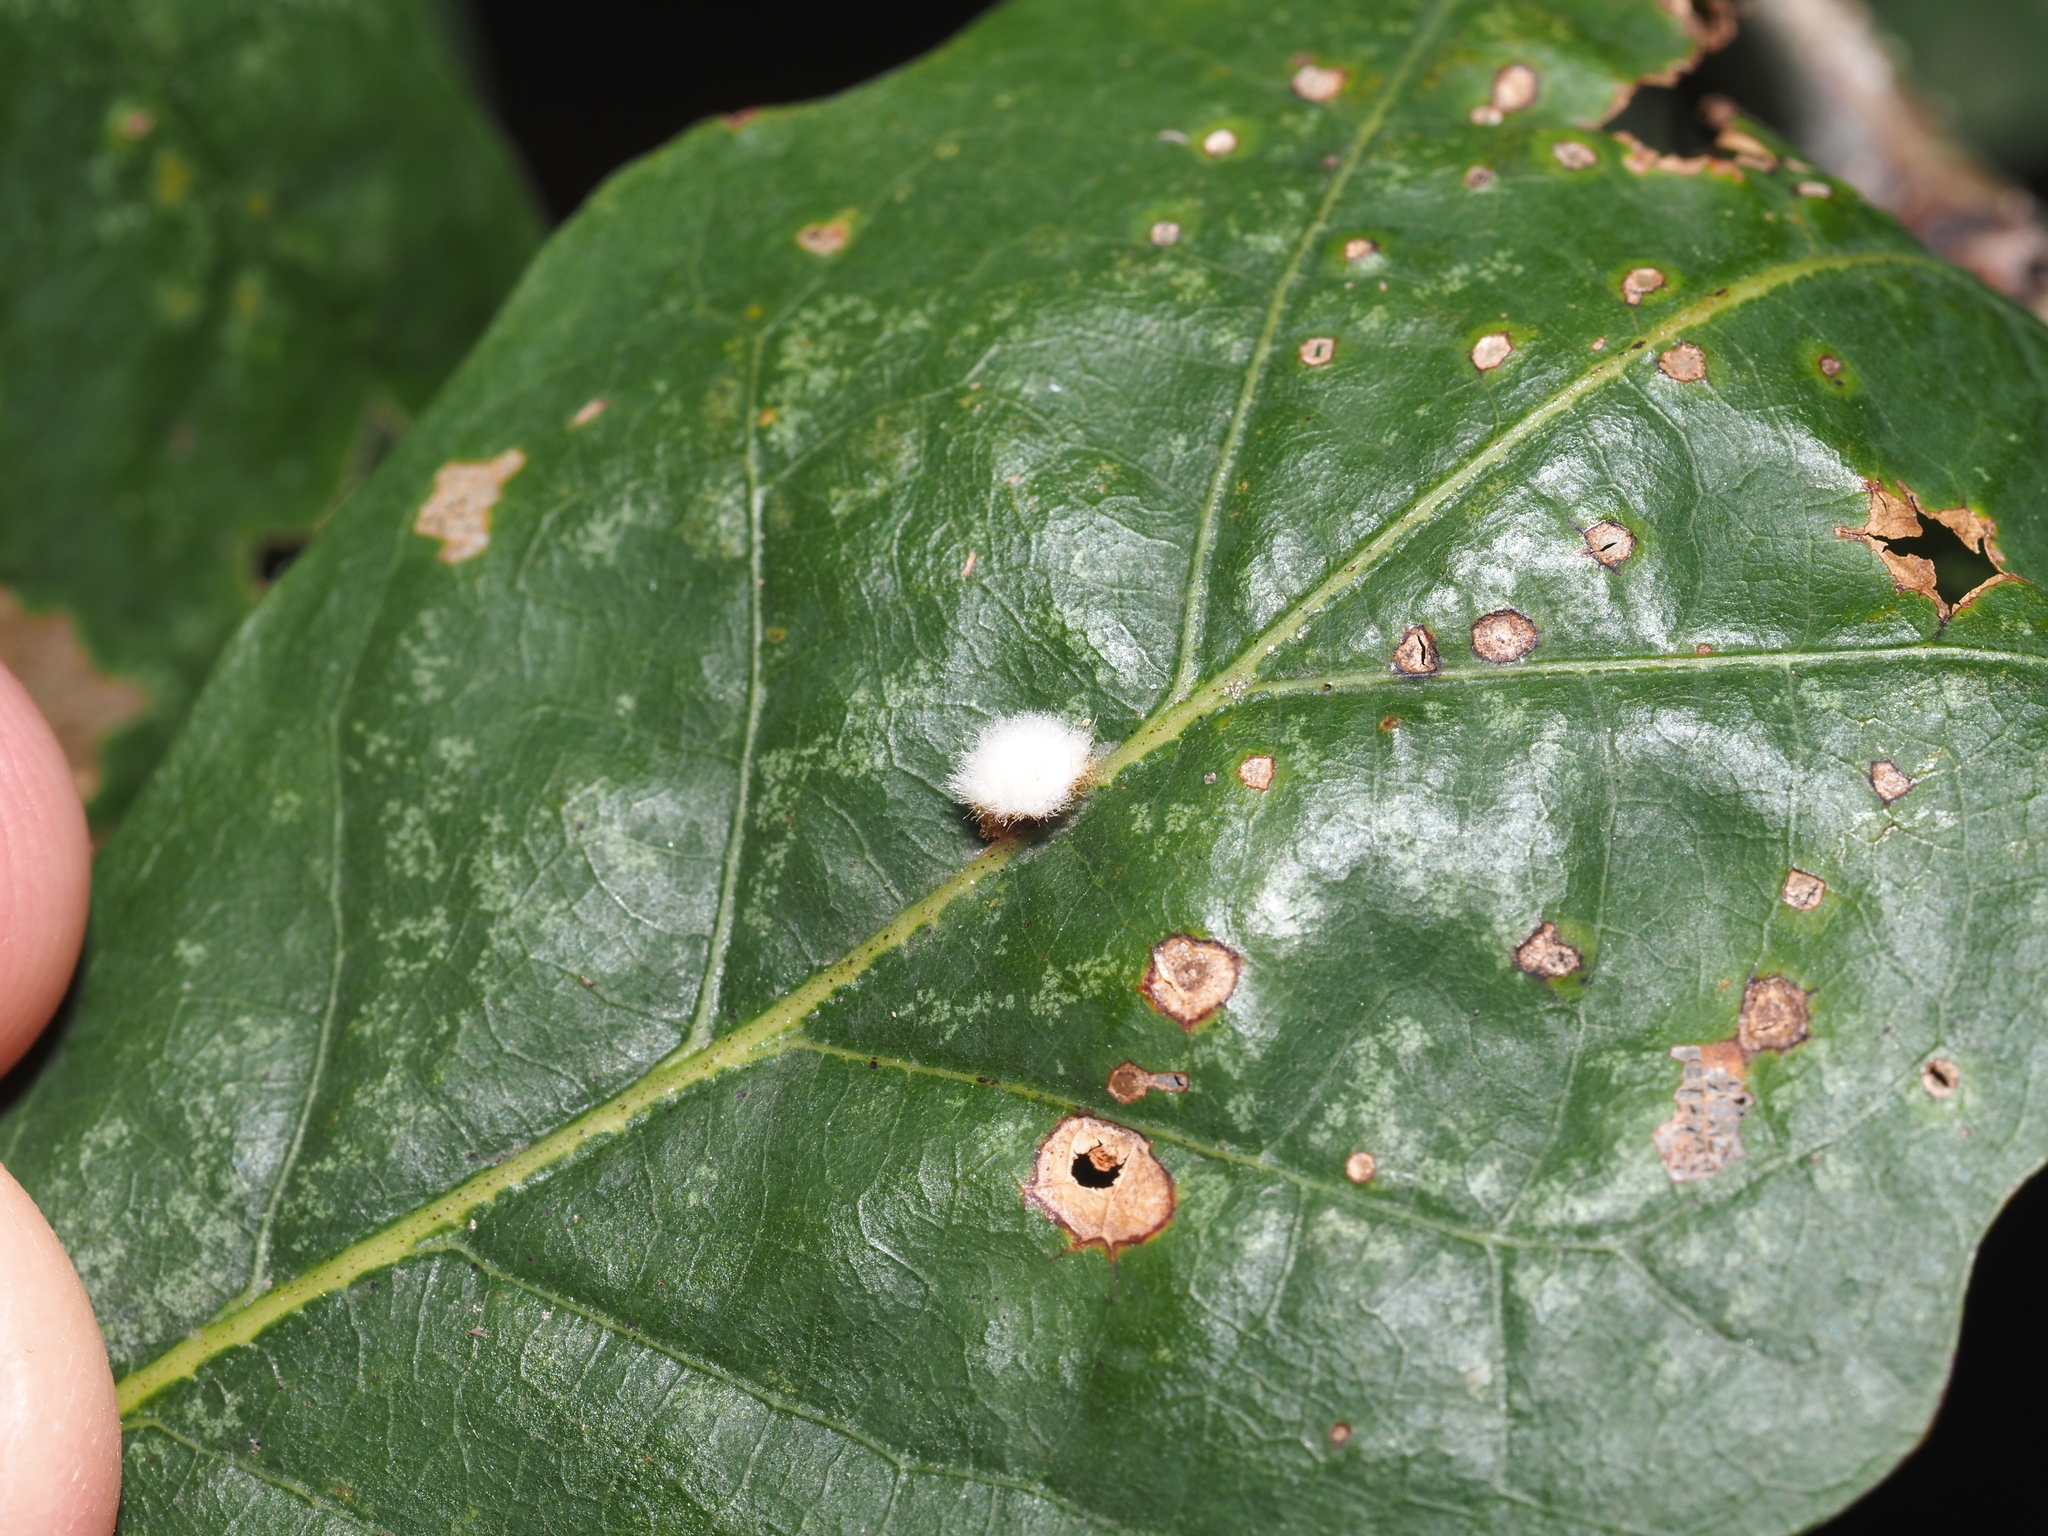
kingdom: Animalia
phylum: Arthropoda
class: Insecta
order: Hymenoptera
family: Cynipidae
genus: Andricus
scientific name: Andricus quercusflocci
